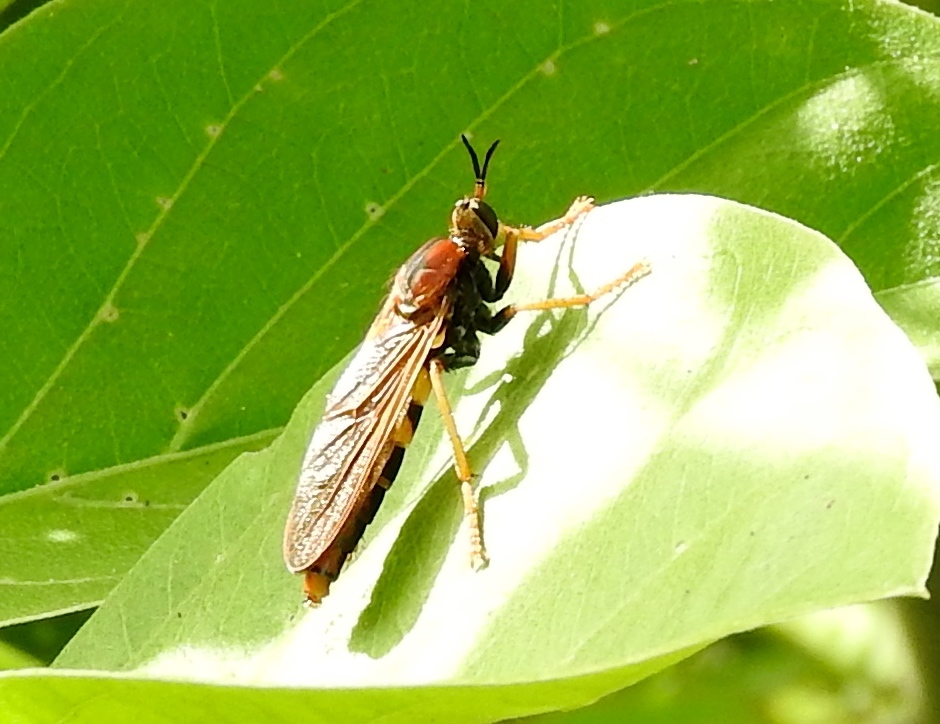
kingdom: Animalia
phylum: Arthropoda
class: Insecta
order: Diptera
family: Asilidae
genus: Stenopogon
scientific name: Stenopogon tequilae
